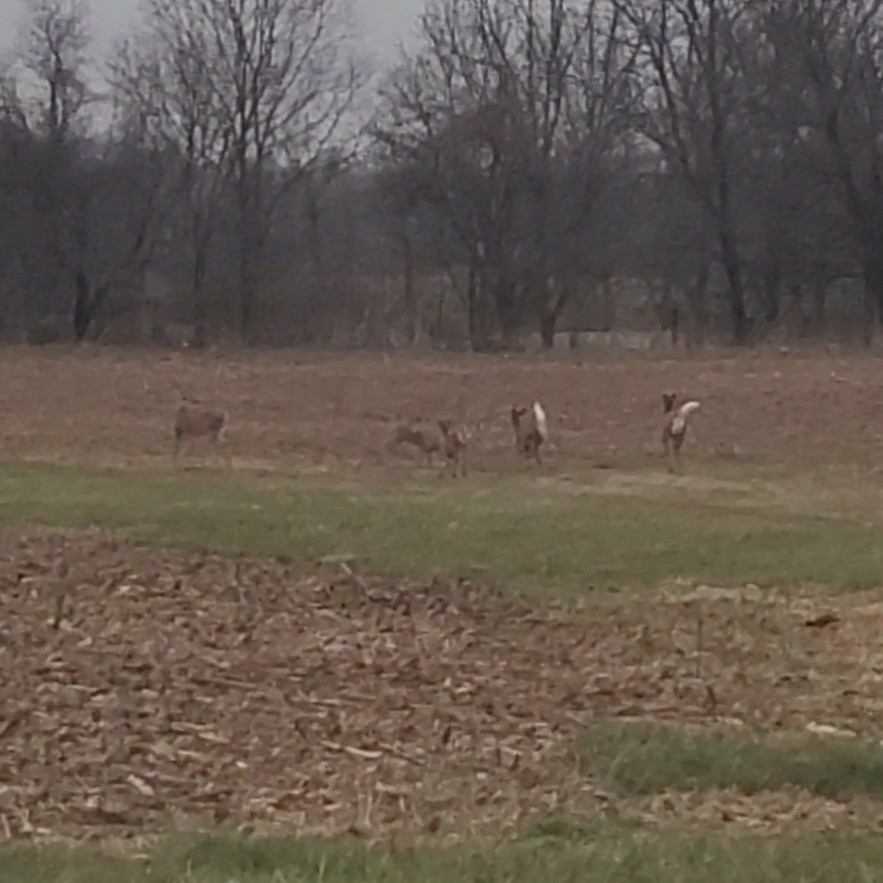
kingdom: Animalia
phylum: Chordata
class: Mammalia
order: Artiodactyla
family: Cervidae
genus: Odocoileus
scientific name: Odocoileus virginianus
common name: White-tailed deer
